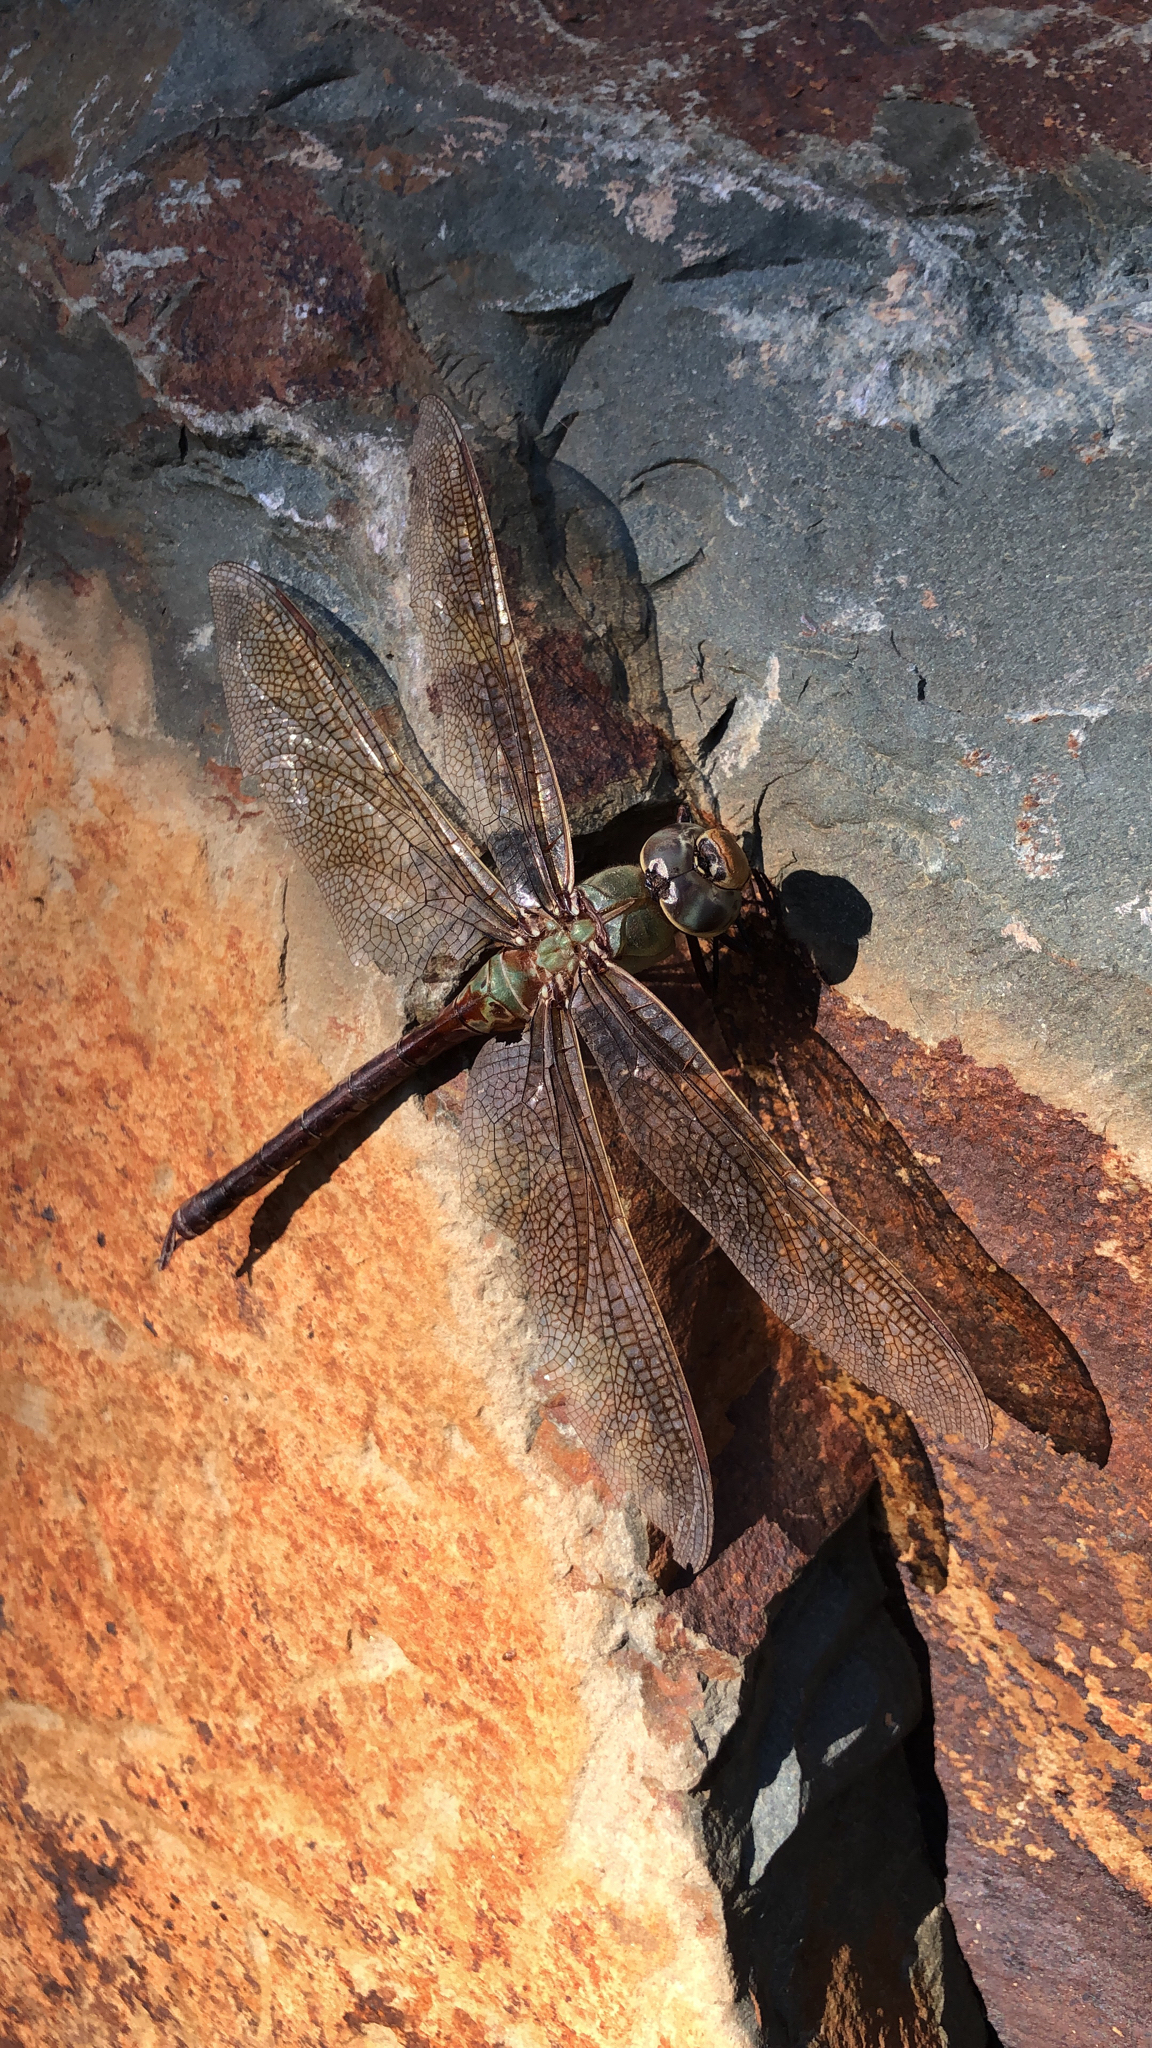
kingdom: Animalia
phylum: Arthropoda
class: Insecta
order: Odonata
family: Aeshnidae
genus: Anax
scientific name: Anax junius
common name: Common green darner
